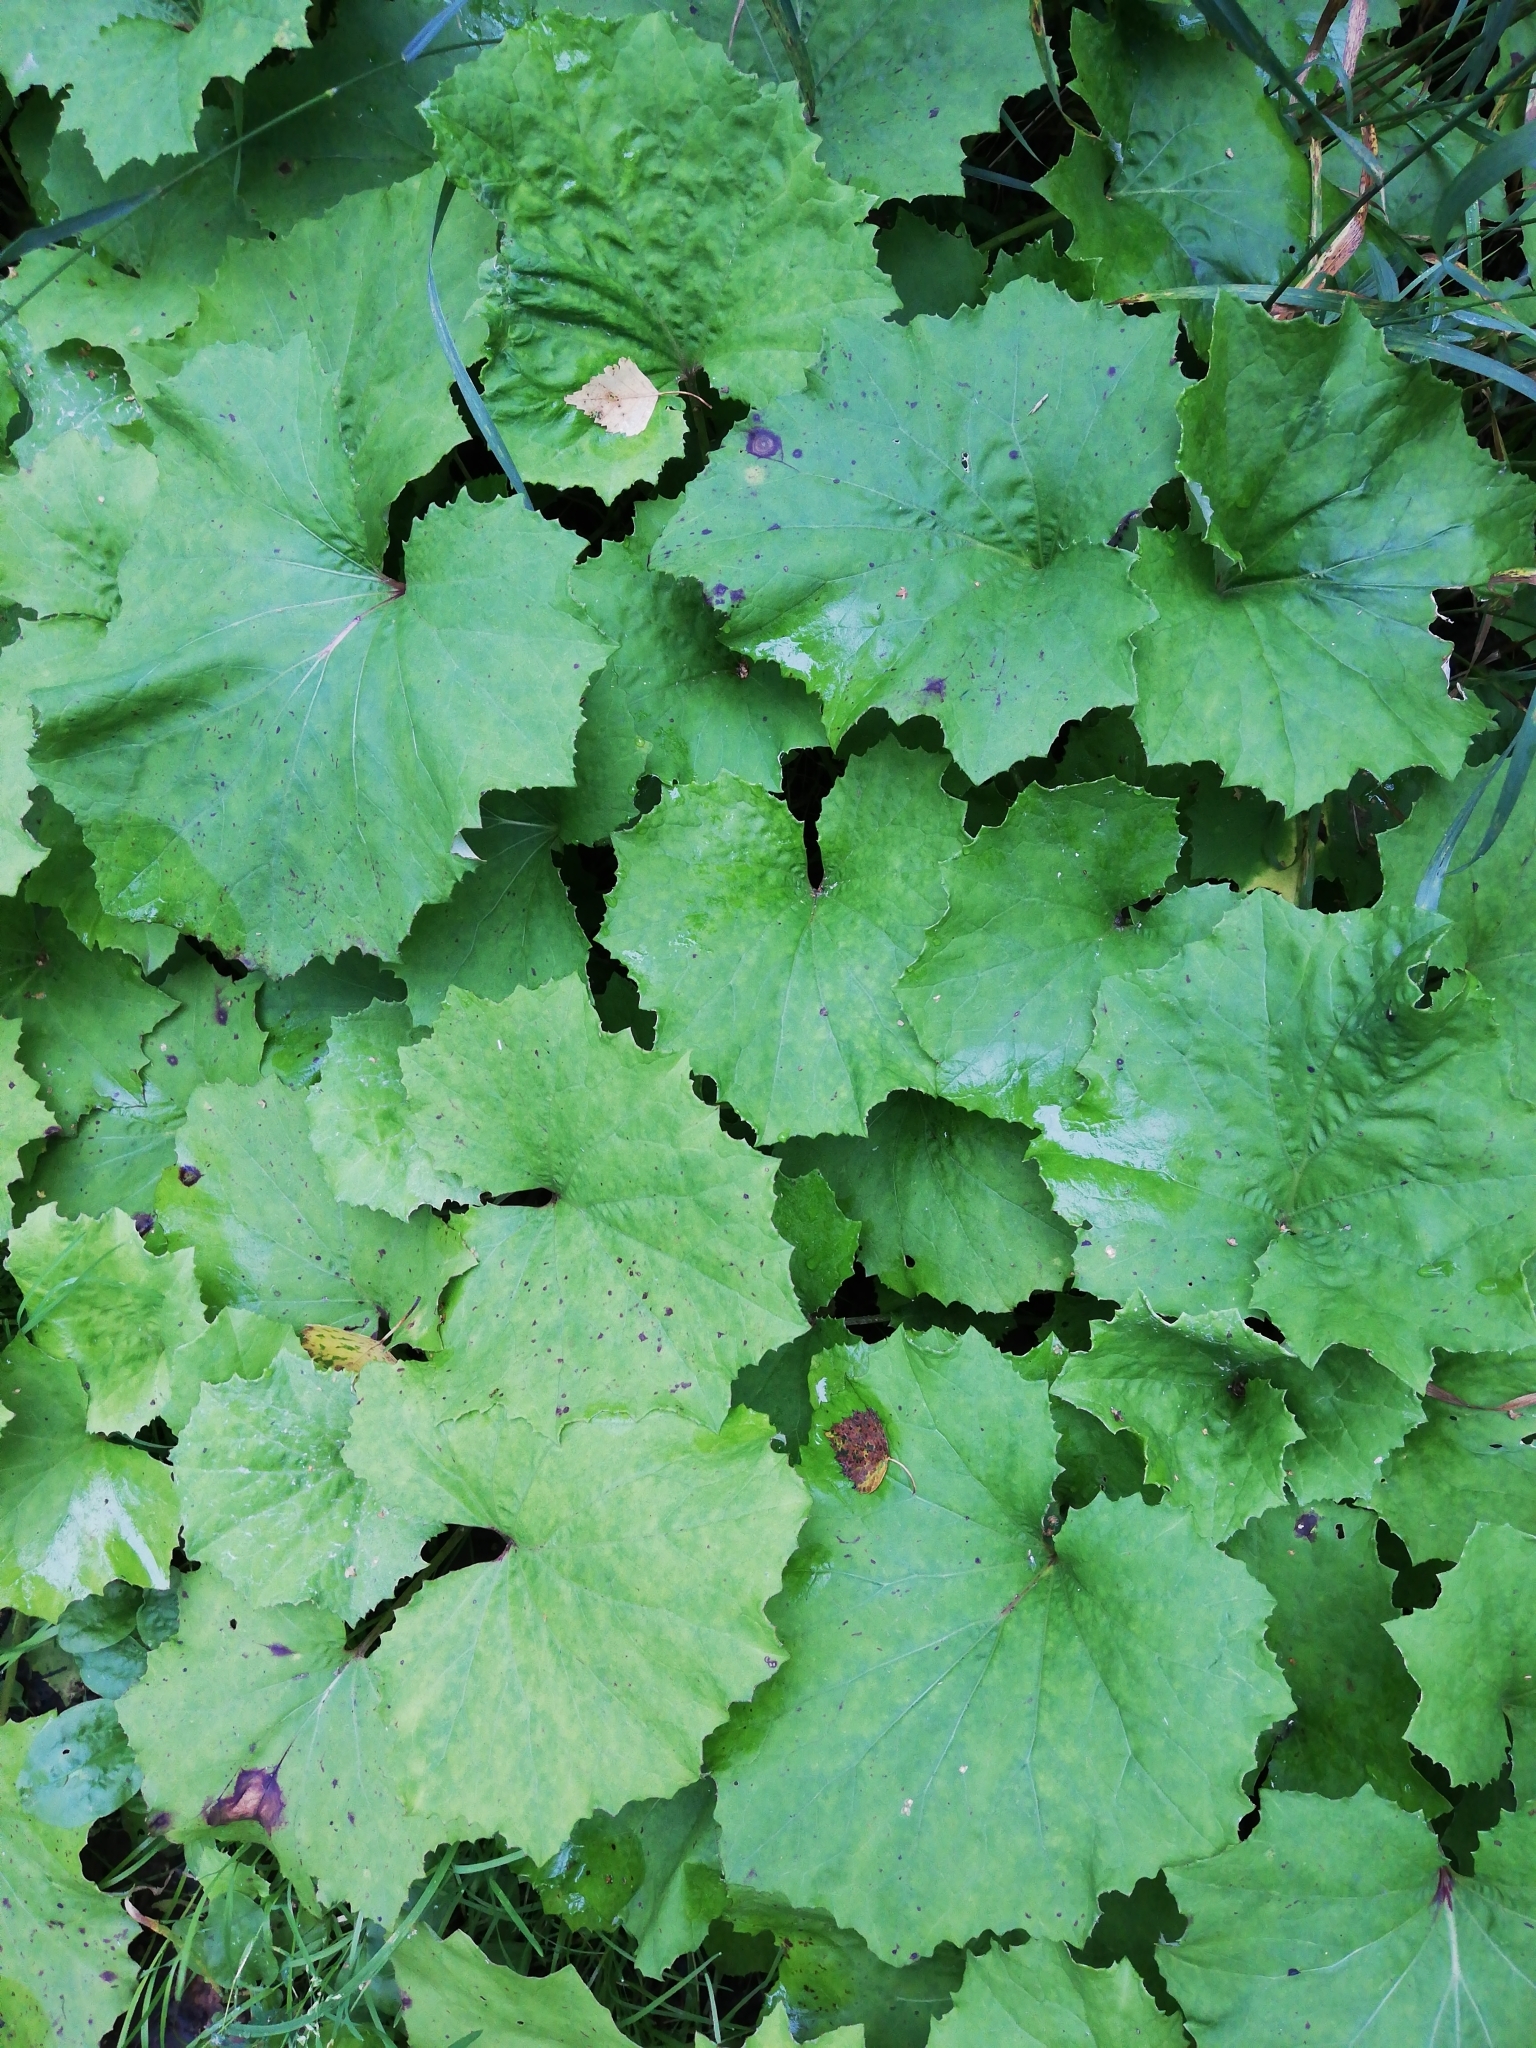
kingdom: Plantae
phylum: Tracheophyta
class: Magnoliopsida
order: Asterales
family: Asteraceae
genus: Tussilago
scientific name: Tussilago farfara
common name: Coltsfoot
